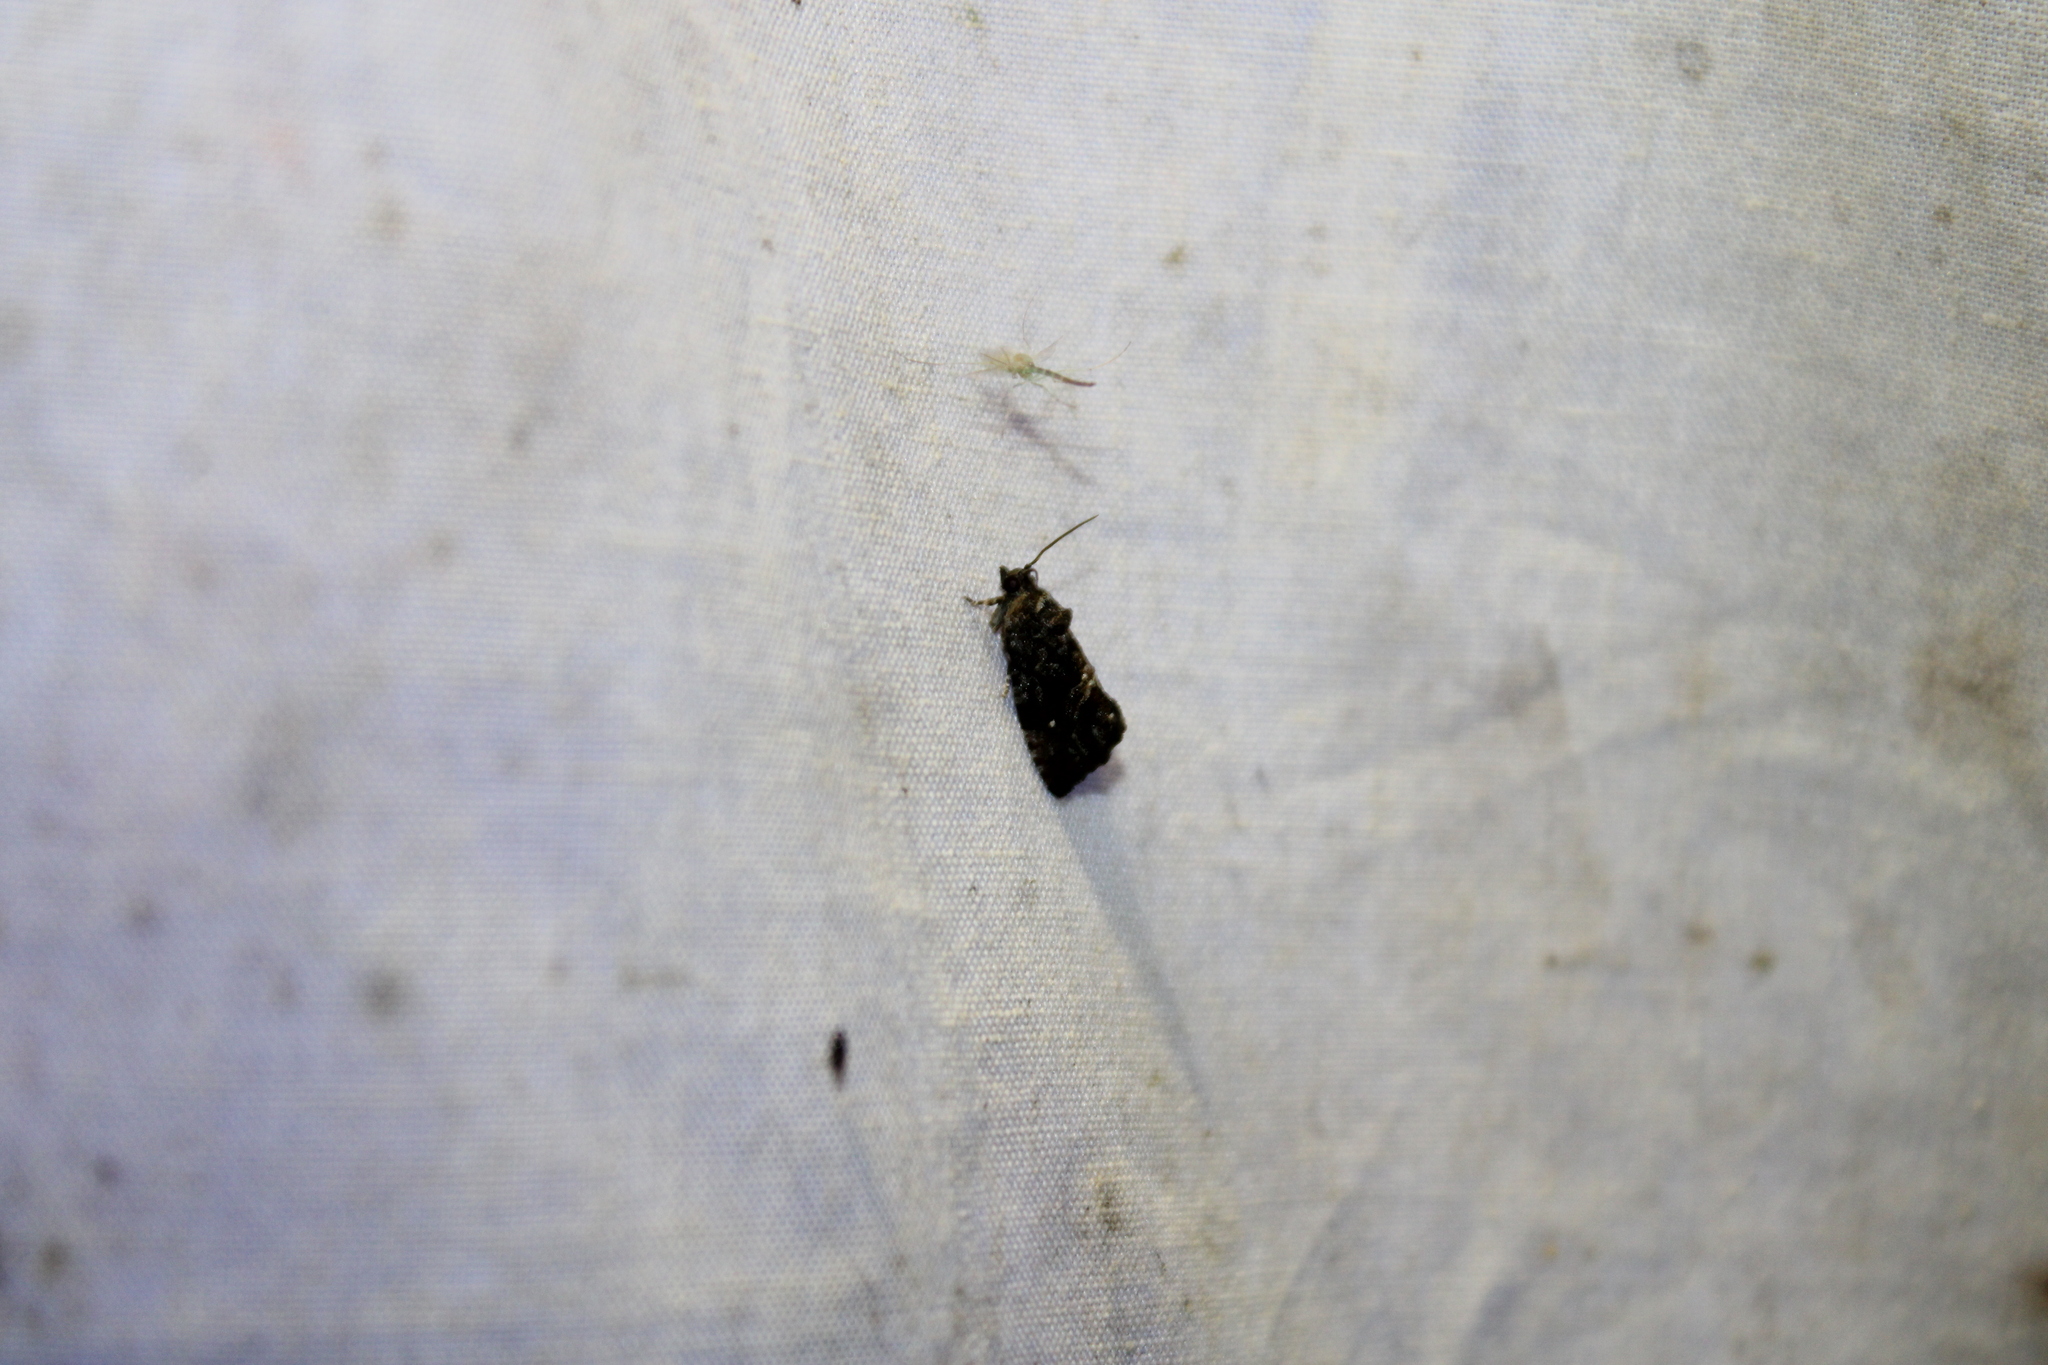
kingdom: Animalia
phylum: Arthropoda
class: Insecta
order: Lepidoptera
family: Tortricidae
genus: Gymnandrosoma
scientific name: Gymnandrosoma punctidiscanum
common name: Dotted ecdytolopha moth
